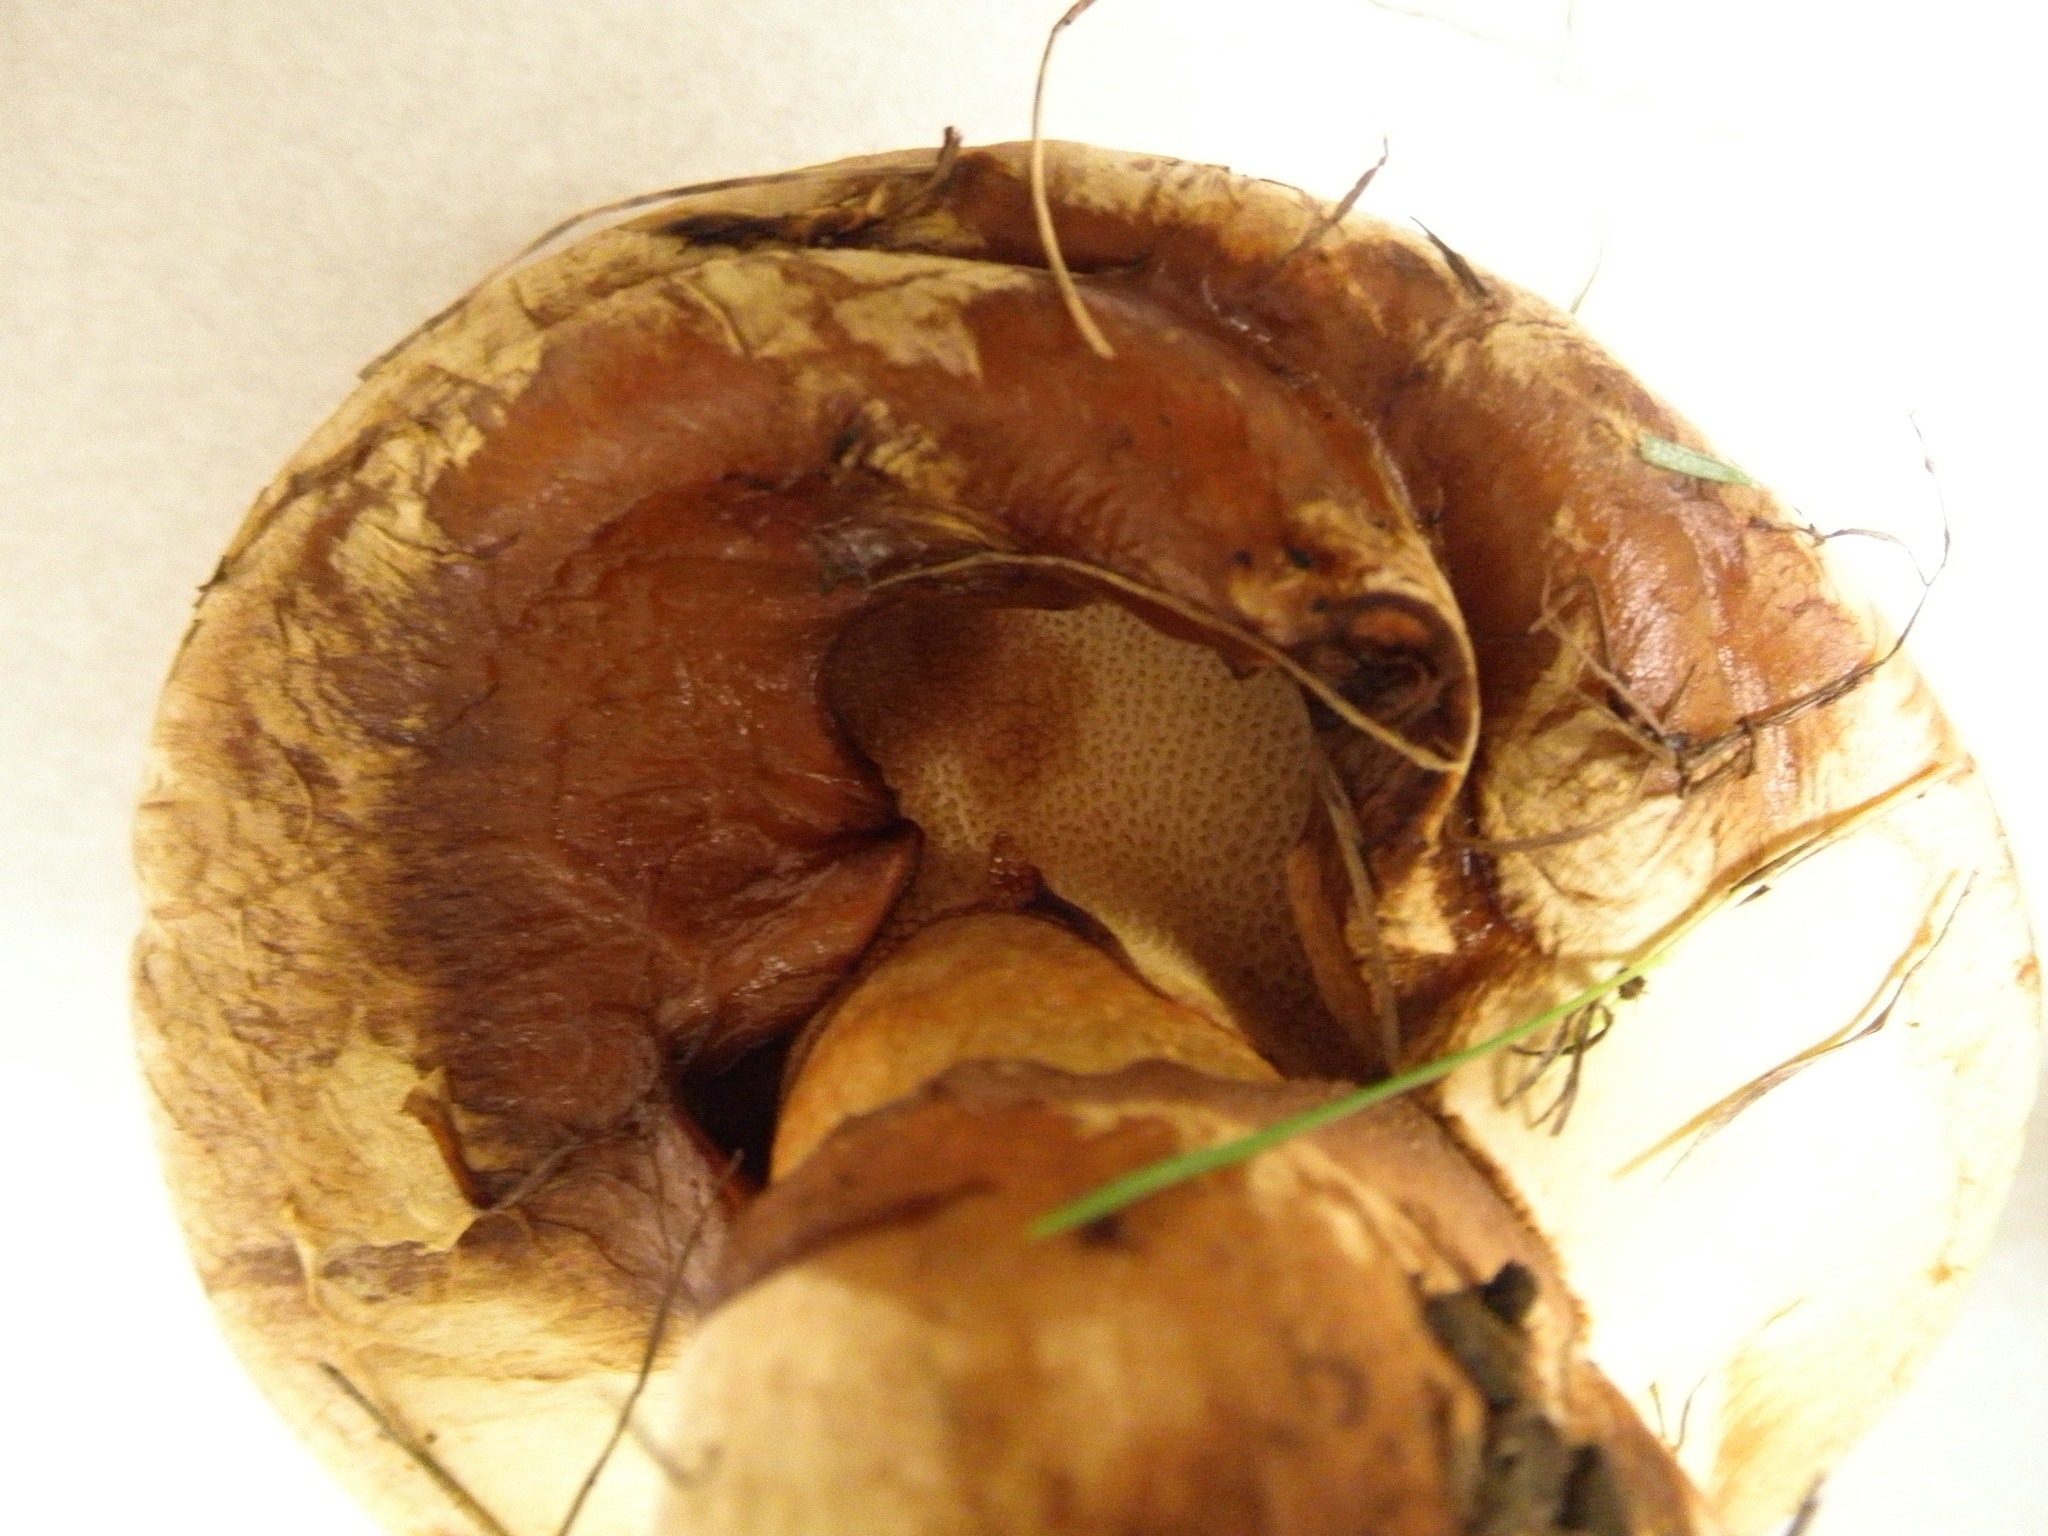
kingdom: Fungi
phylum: Basidiomycota
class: Agaricomycetes
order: Boletales
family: Paxillaceae
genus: Paragyrodon
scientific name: Paragyrodon sphaerosporus
